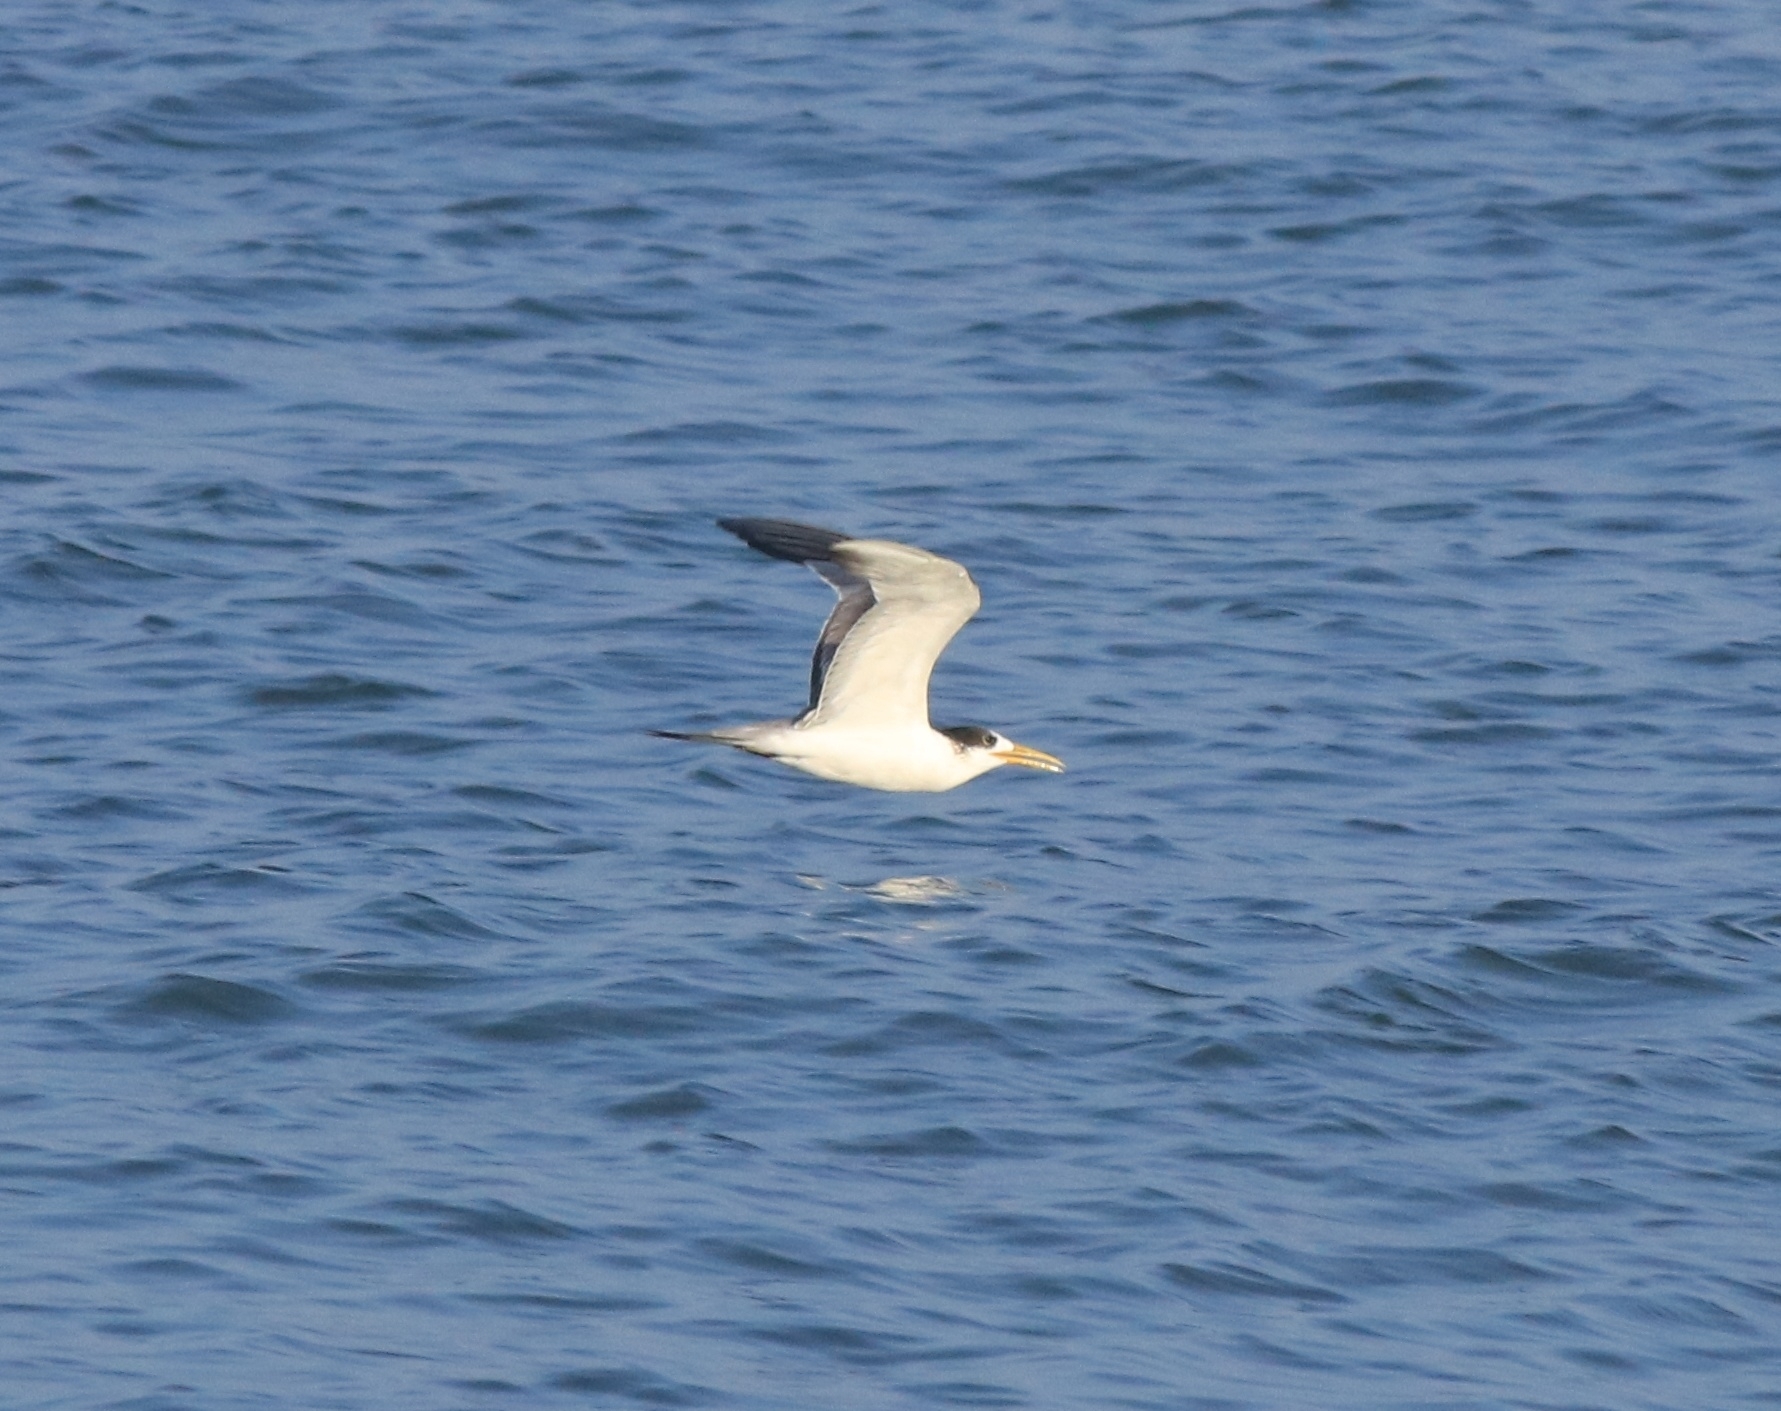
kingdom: Animalia
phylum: Chordata
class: Aves
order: Charadriiformes
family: Laridae
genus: Thalasseus
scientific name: Thalasseus bergii
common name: Greater crested tern
